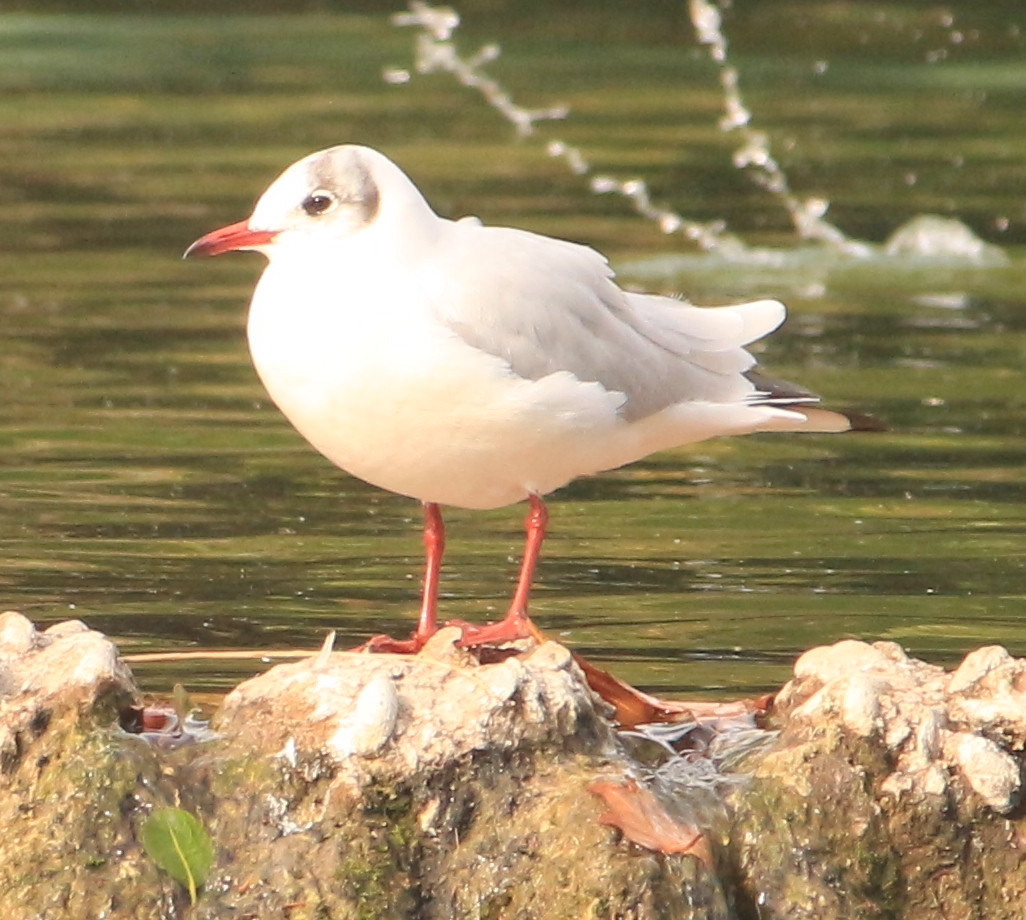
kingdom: Animalia
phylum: Chordata
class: Aves
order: Charadriiformes
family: Laridae
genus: Chroicocephalus
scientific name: Chroicocephalus ridibundus
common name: Black-headed gull
